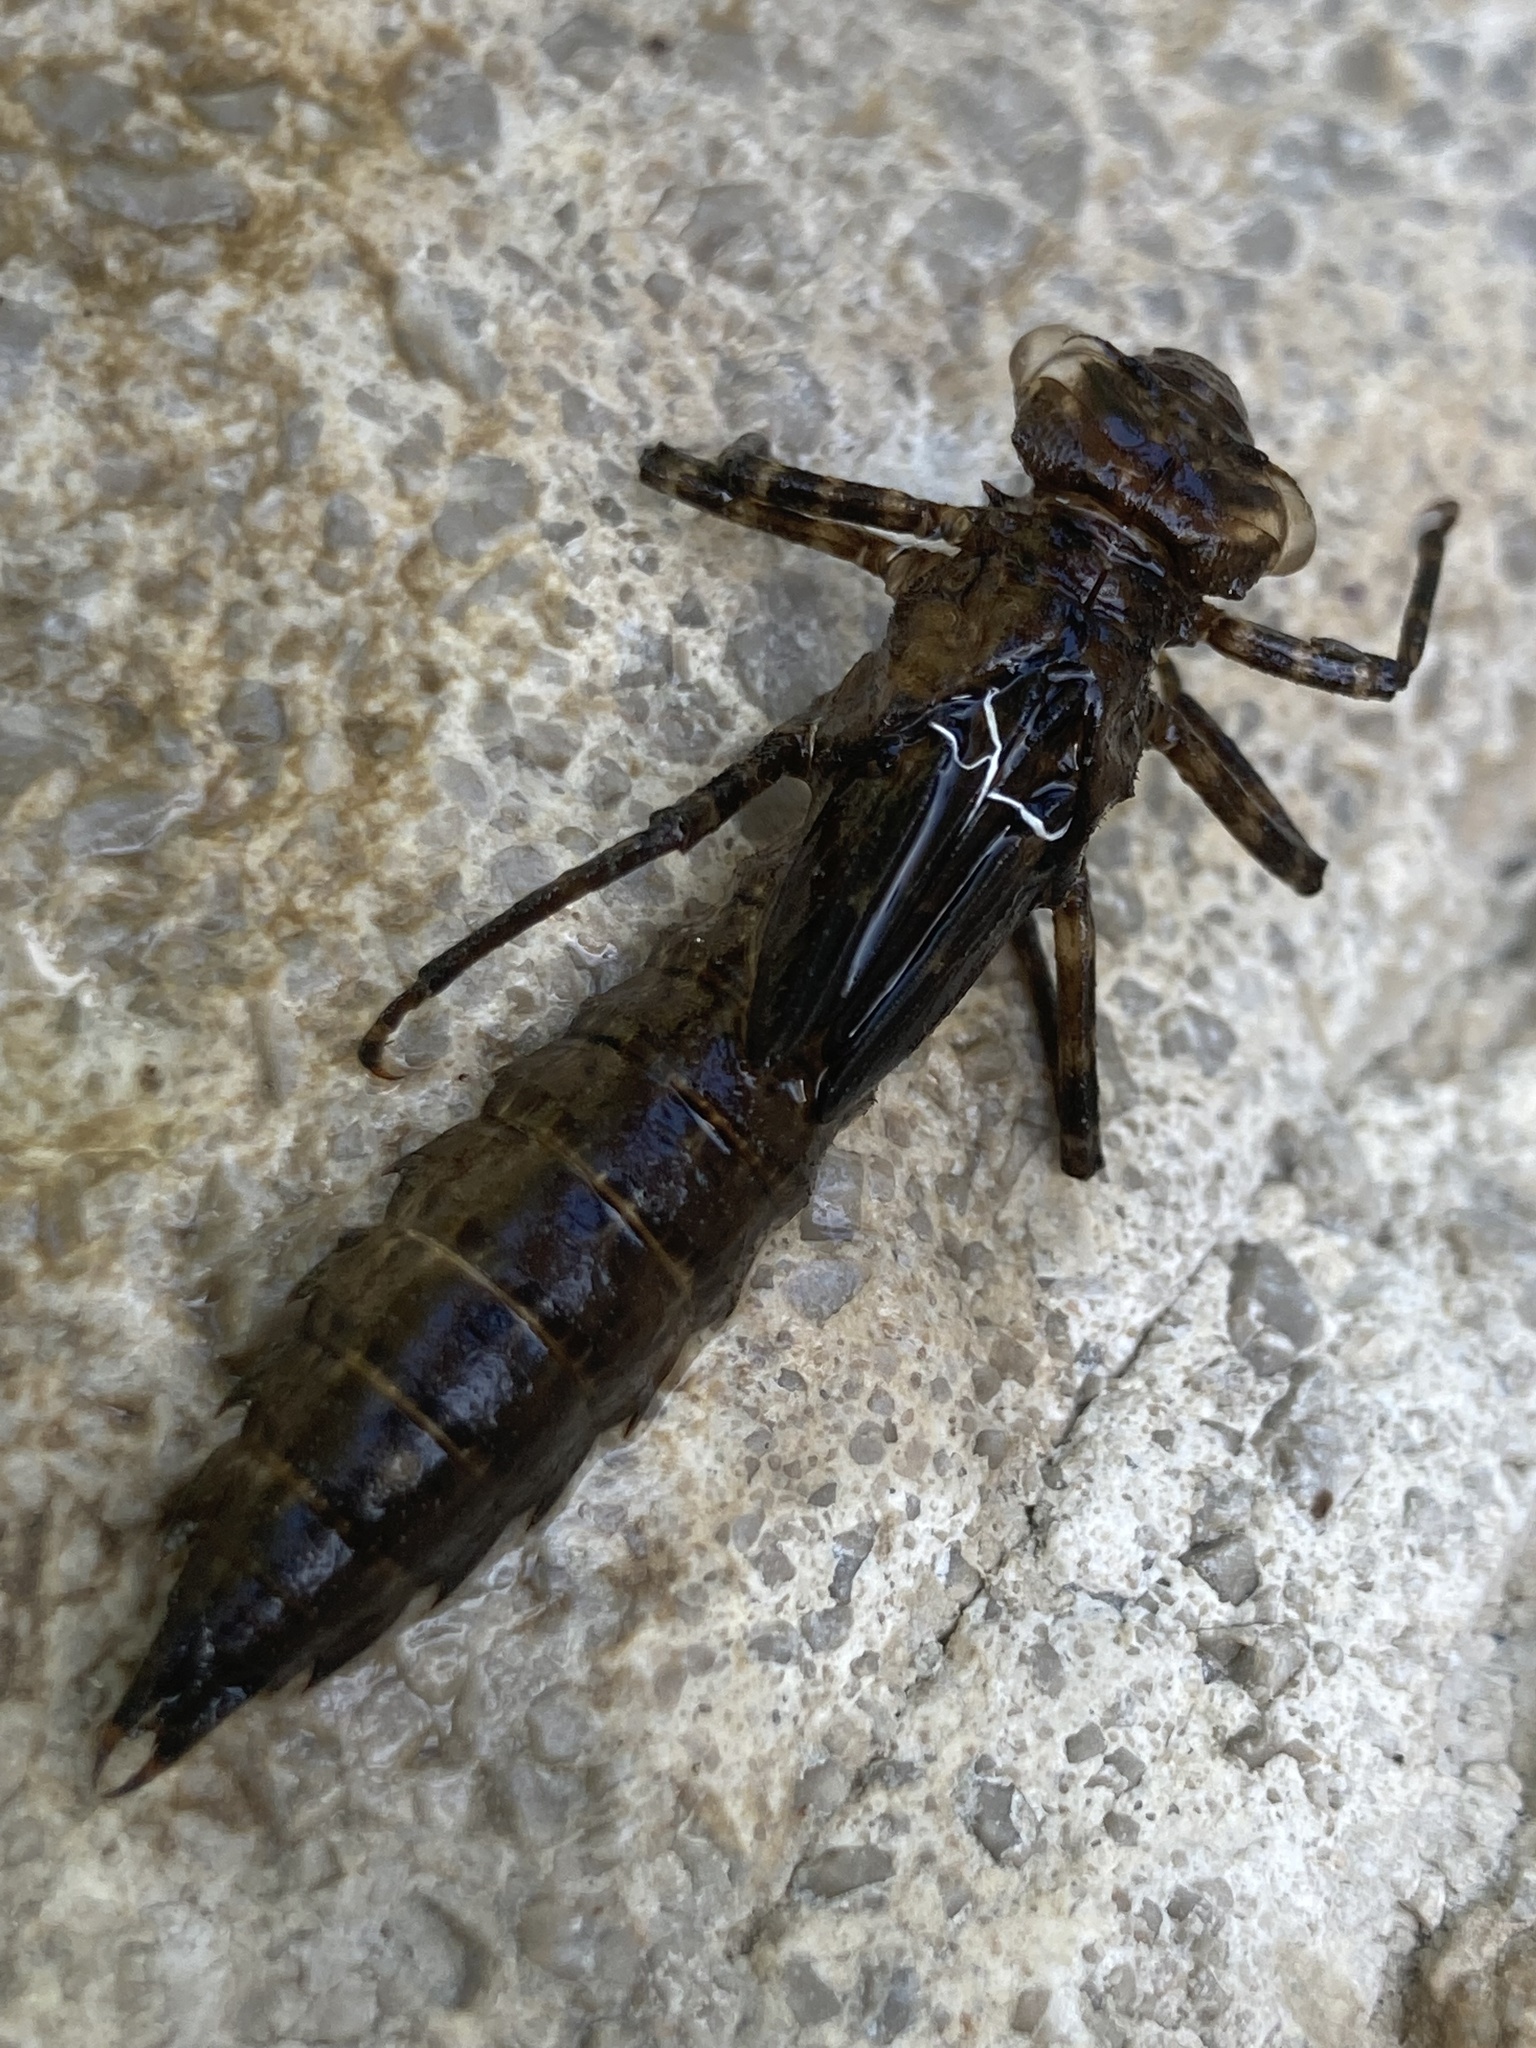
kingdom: Animalia
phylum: Arthropoda
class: Insecta
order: Odonata
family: Aeshnidae
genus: Boyeria
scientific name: Boyeria irene
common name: Western spectre
